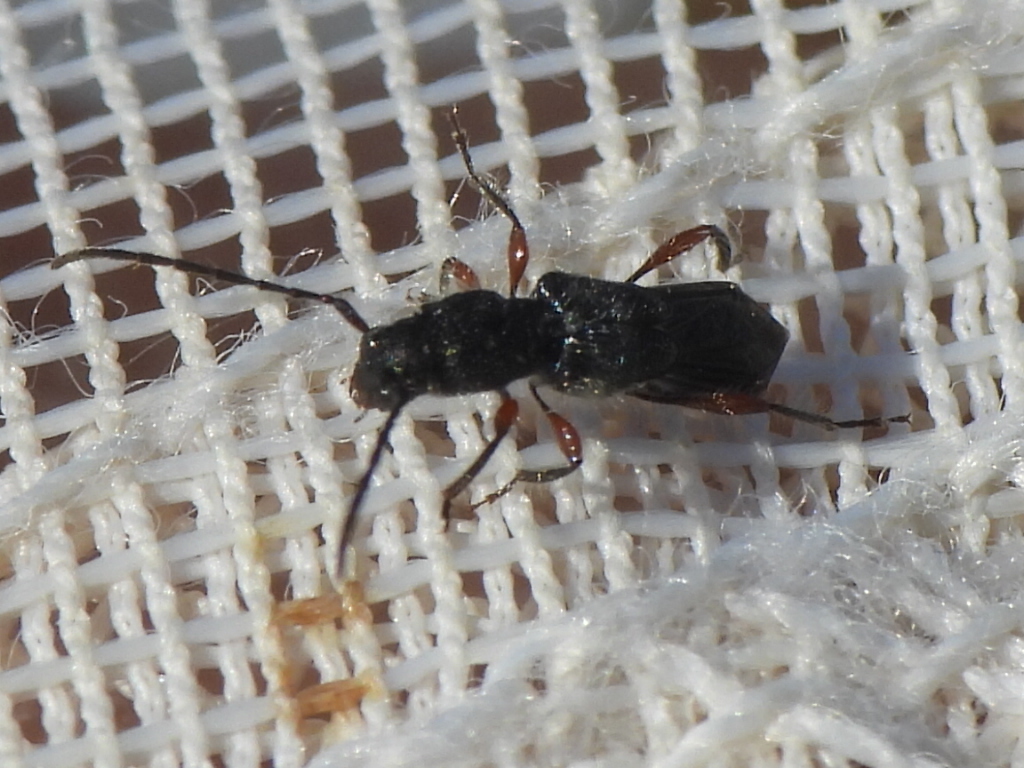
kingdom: Animalia
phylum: Arthropoda
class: Insecta
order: Coleoptera
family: Cerambycidae
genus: Molorchus
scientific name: Molorchus bimaculatus
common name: Bimaculate longhorn beetle
